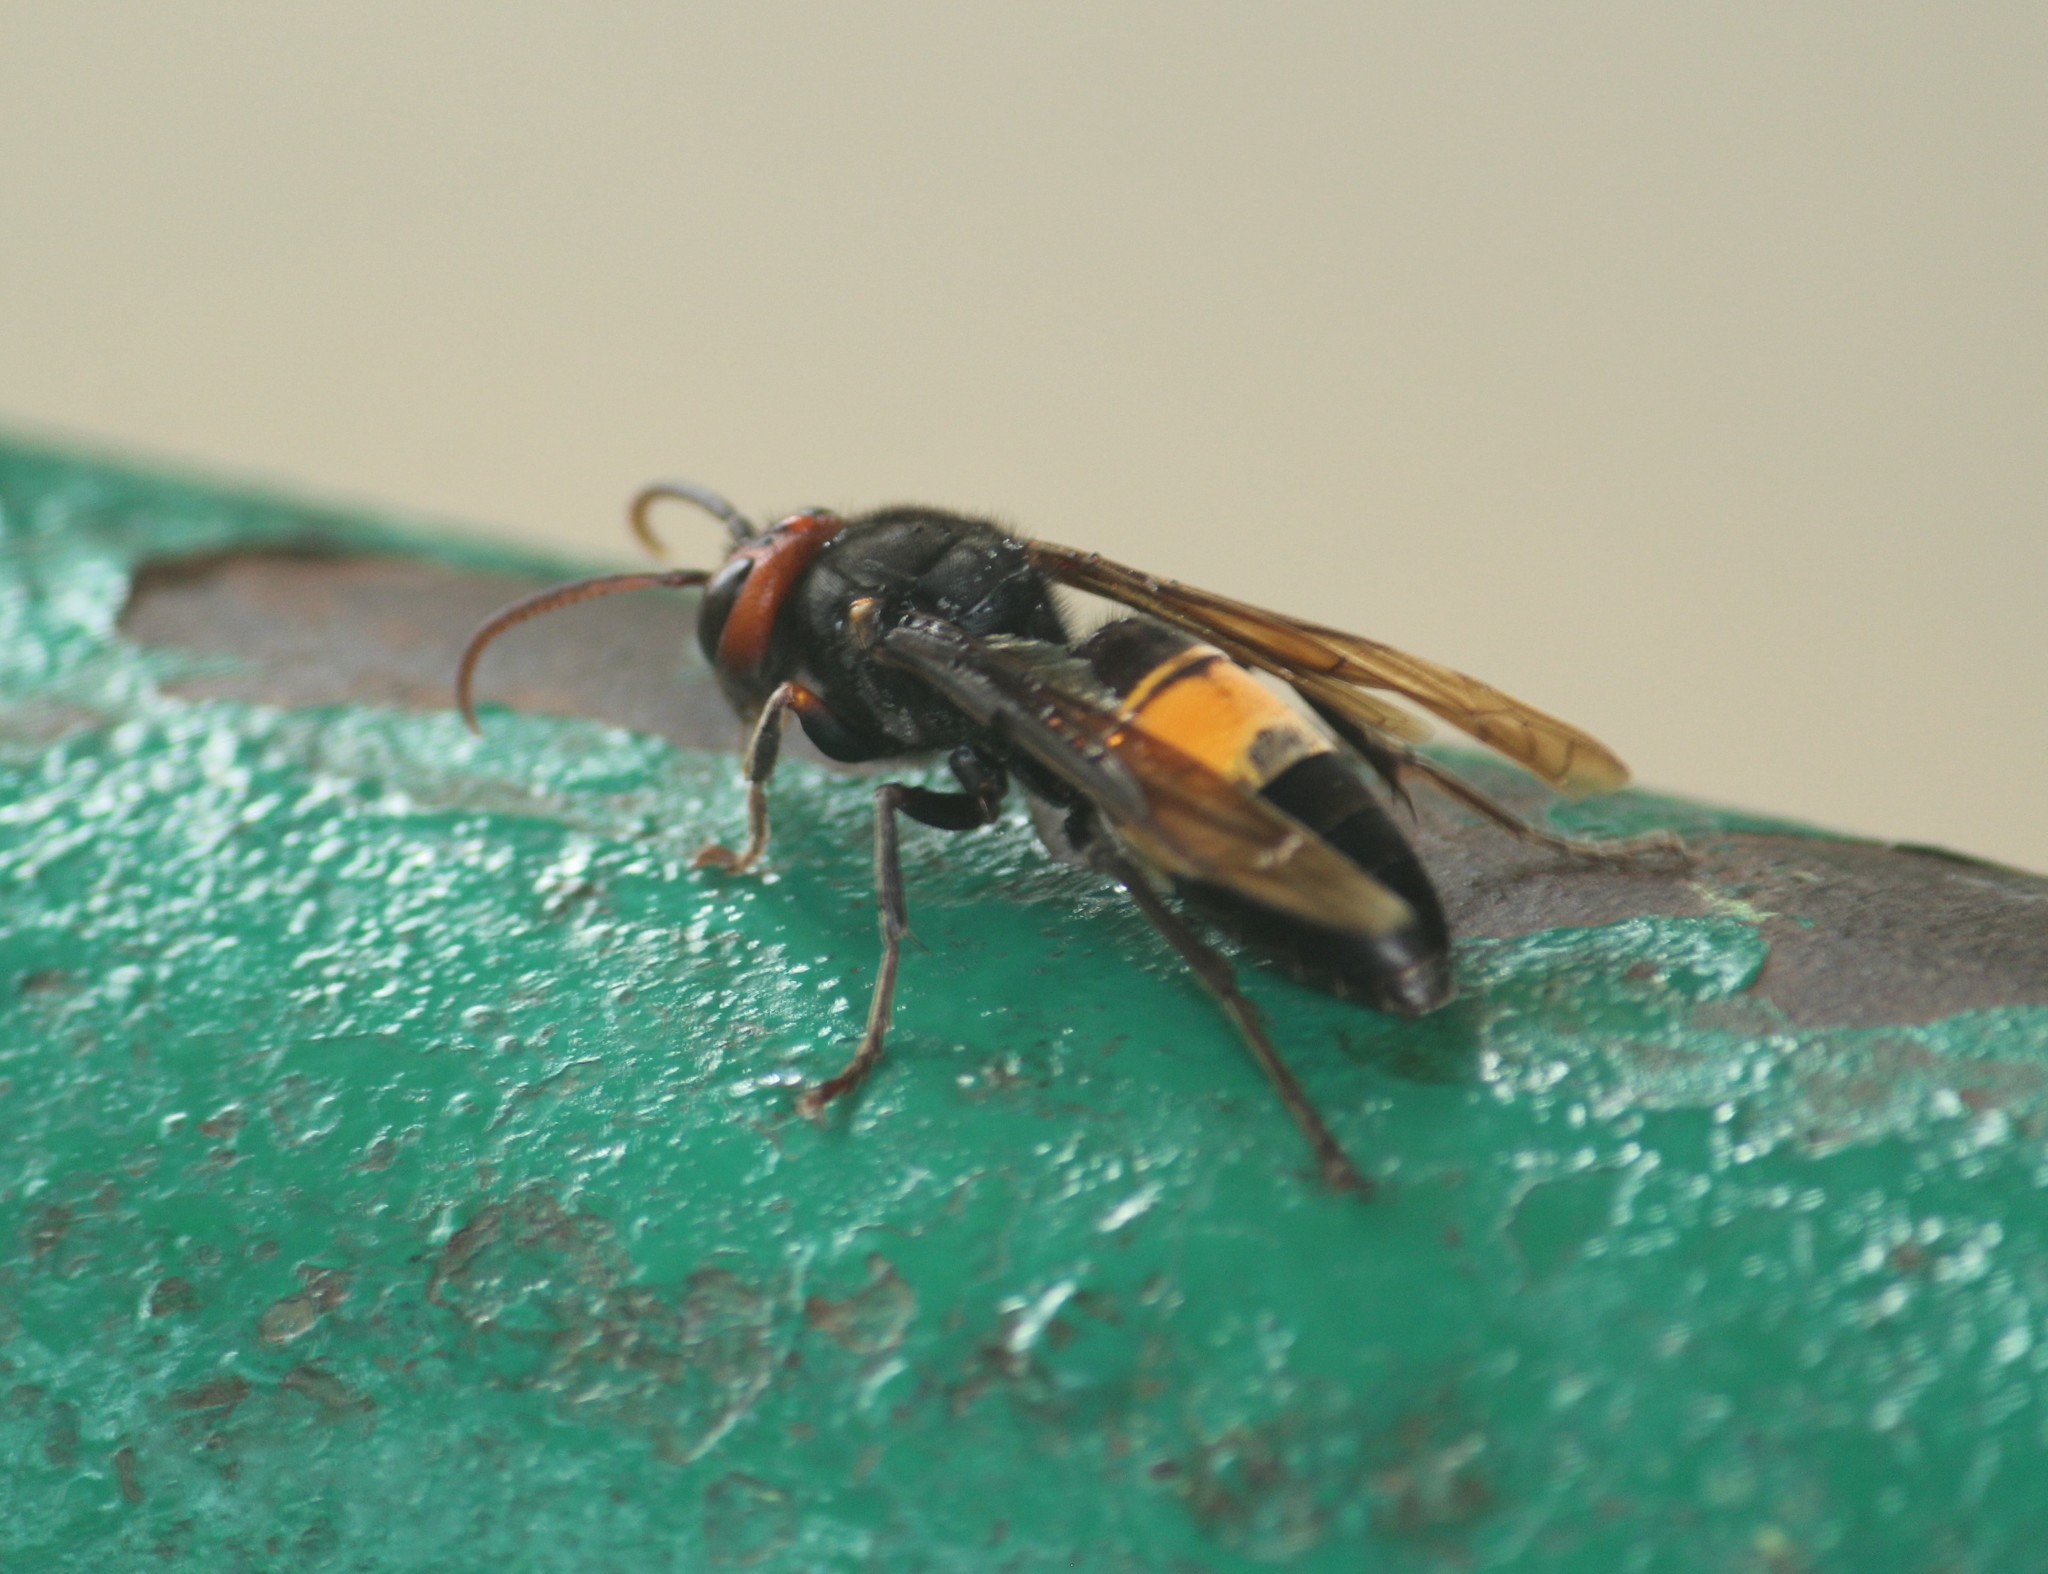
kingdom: Animalia
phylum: Arthropoda
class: Insecta
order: Hymenoptera
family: Vespidae
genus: Vespa
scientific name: Vespa tropica
